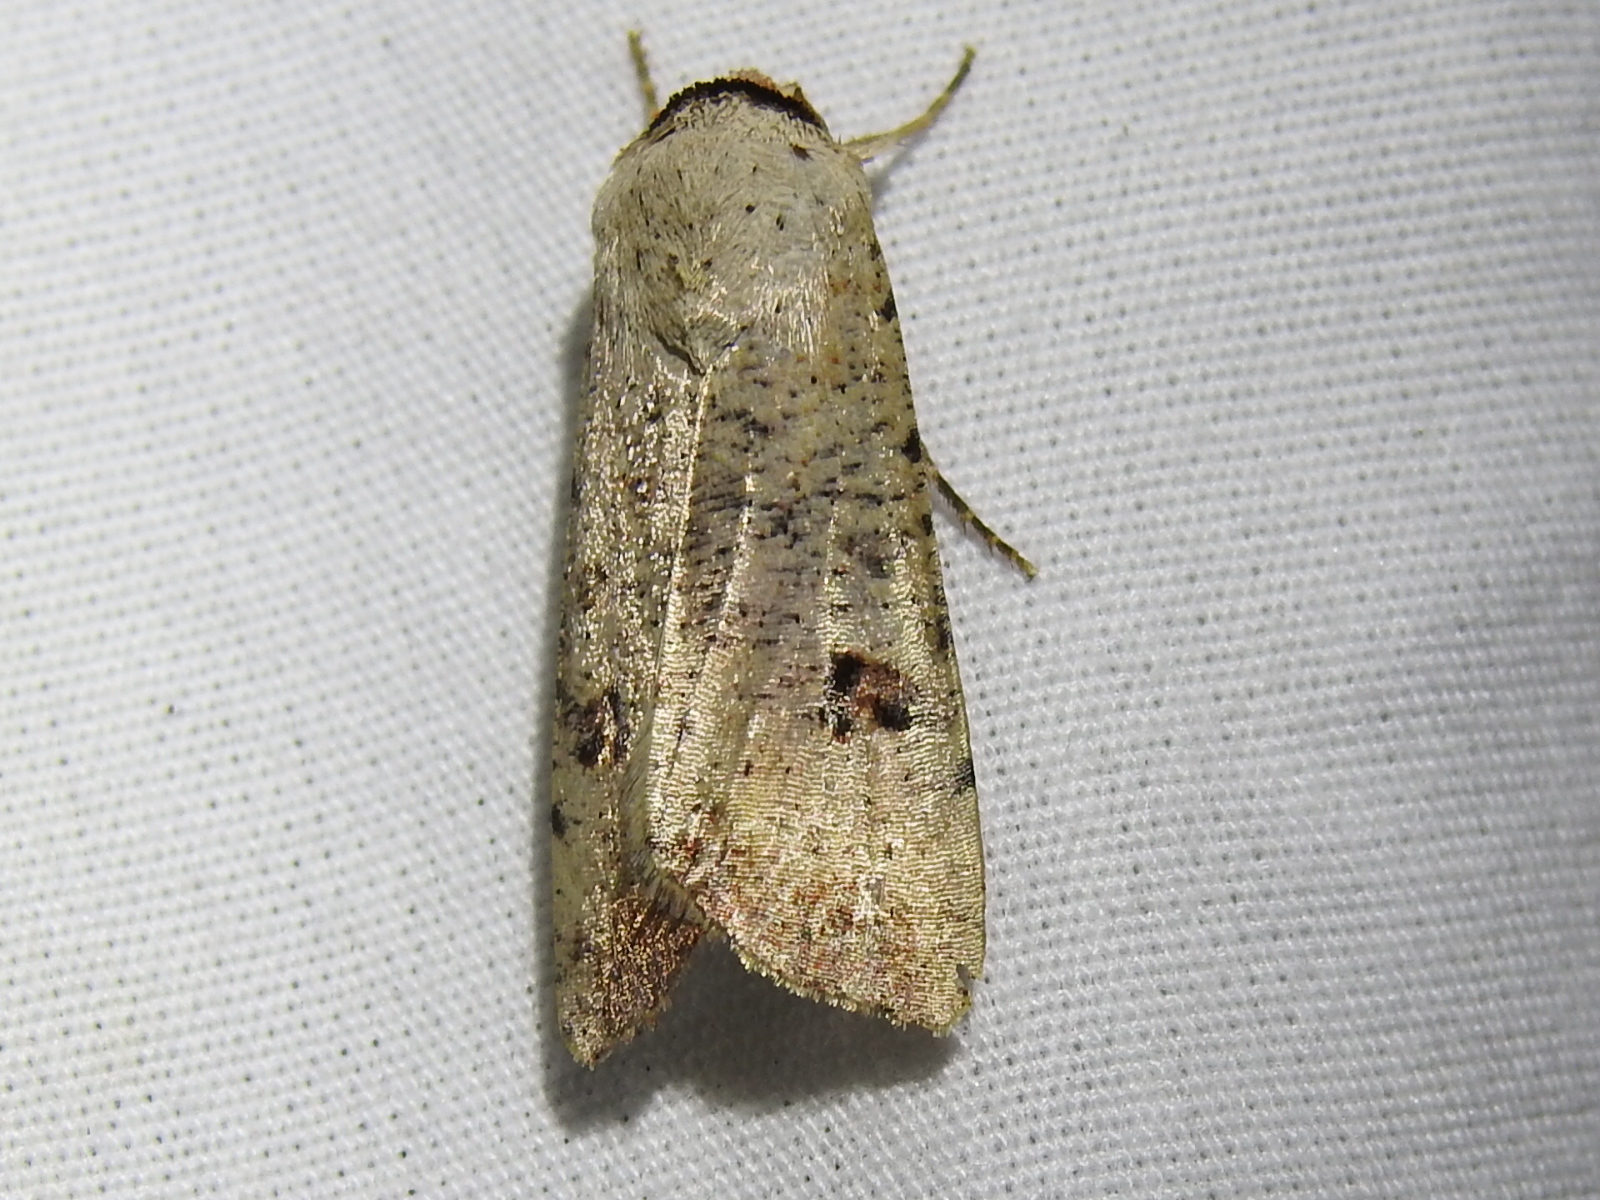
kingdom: Animalia
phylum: Arthropoda
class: Insecta
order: Lepidoptera
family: Noctuidae
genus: Anicla
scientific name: Anicla infecta
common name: Green cutworm
